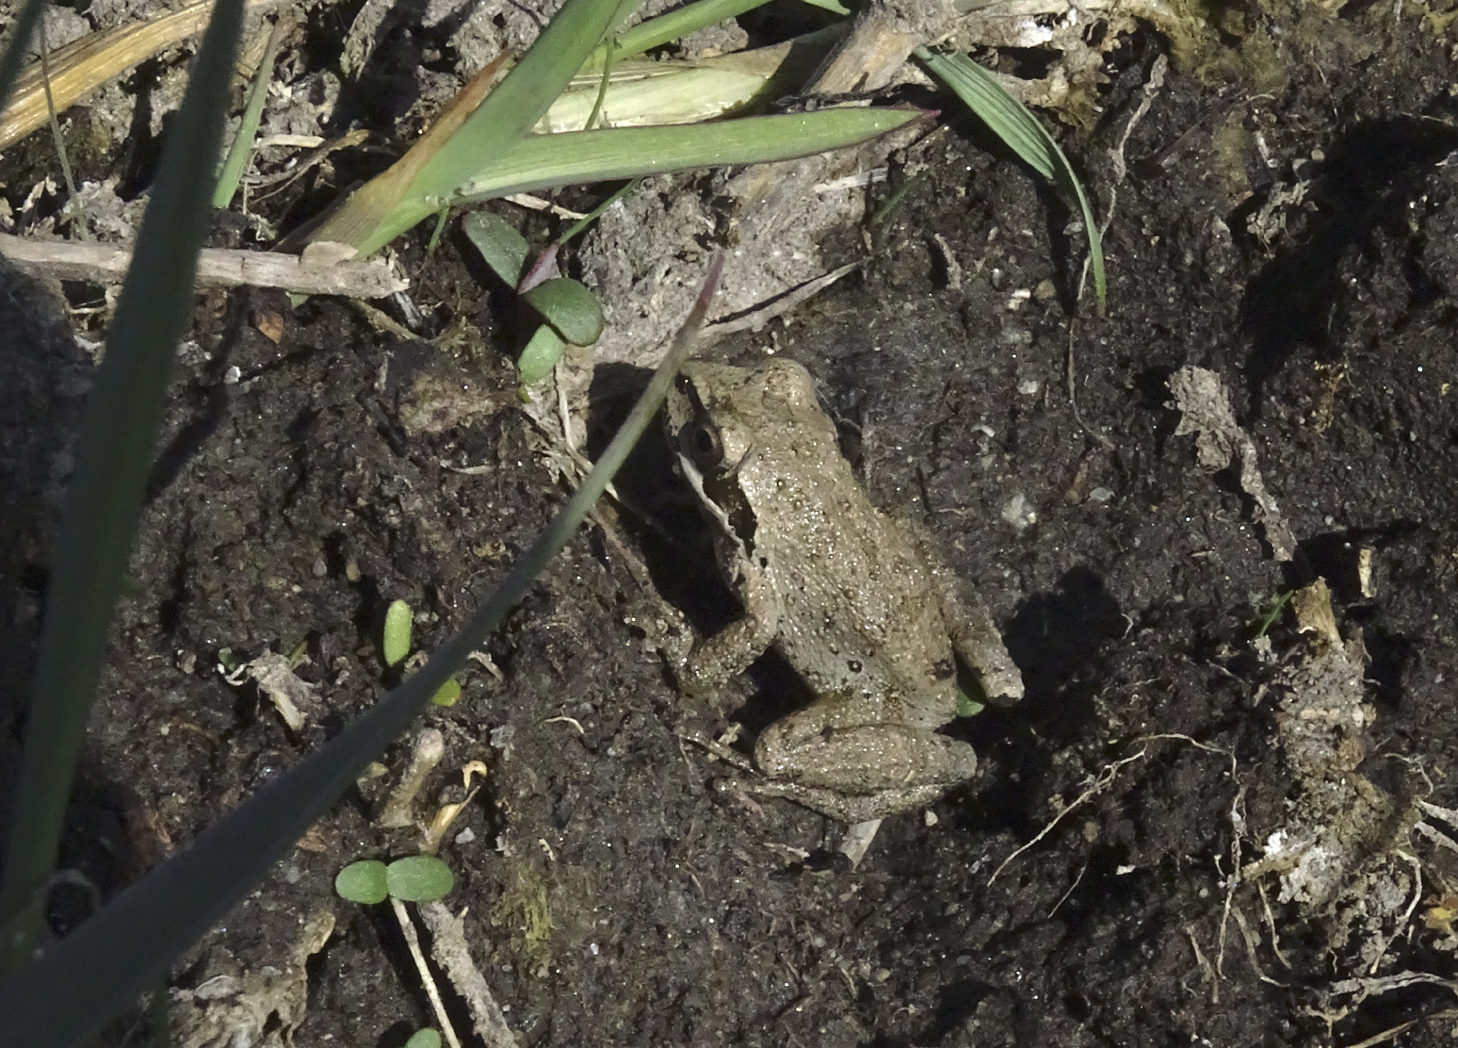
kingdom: Animalia
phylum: Chordata
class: Amphibia
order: Anura
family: Hylidae
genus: Pseudacris
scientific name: Pseudacris regilla
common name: Pacific chorus frog
